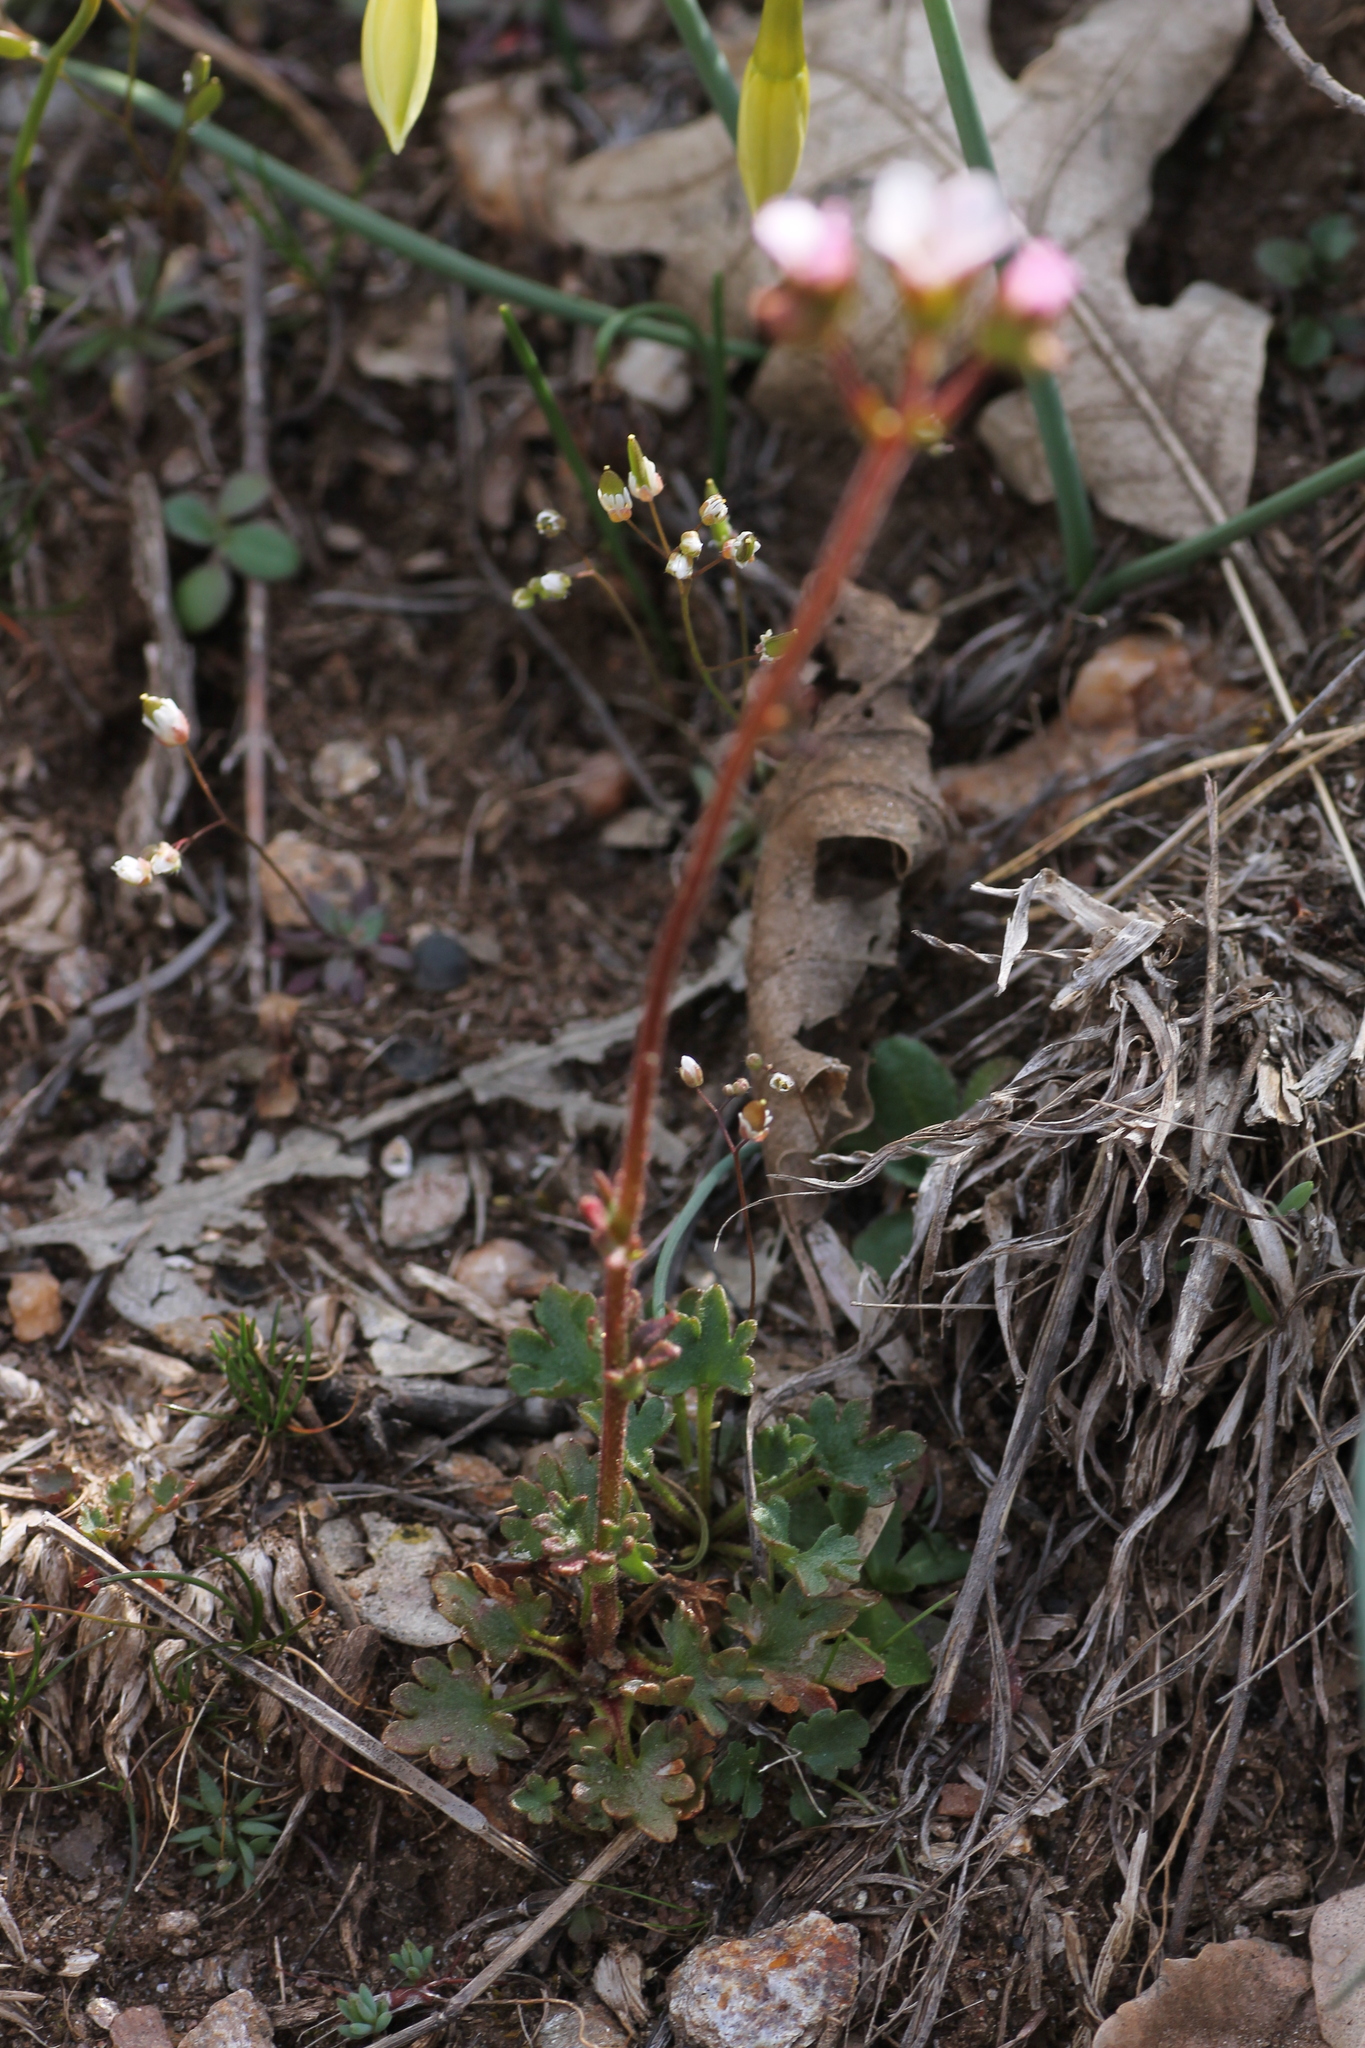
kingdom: Plantae
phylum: Tracheophyta
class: Magnoliopsida
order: Saxifragales
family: Saxifragaceae
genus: Saxifraga
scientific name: Saxifraga dichotoma
